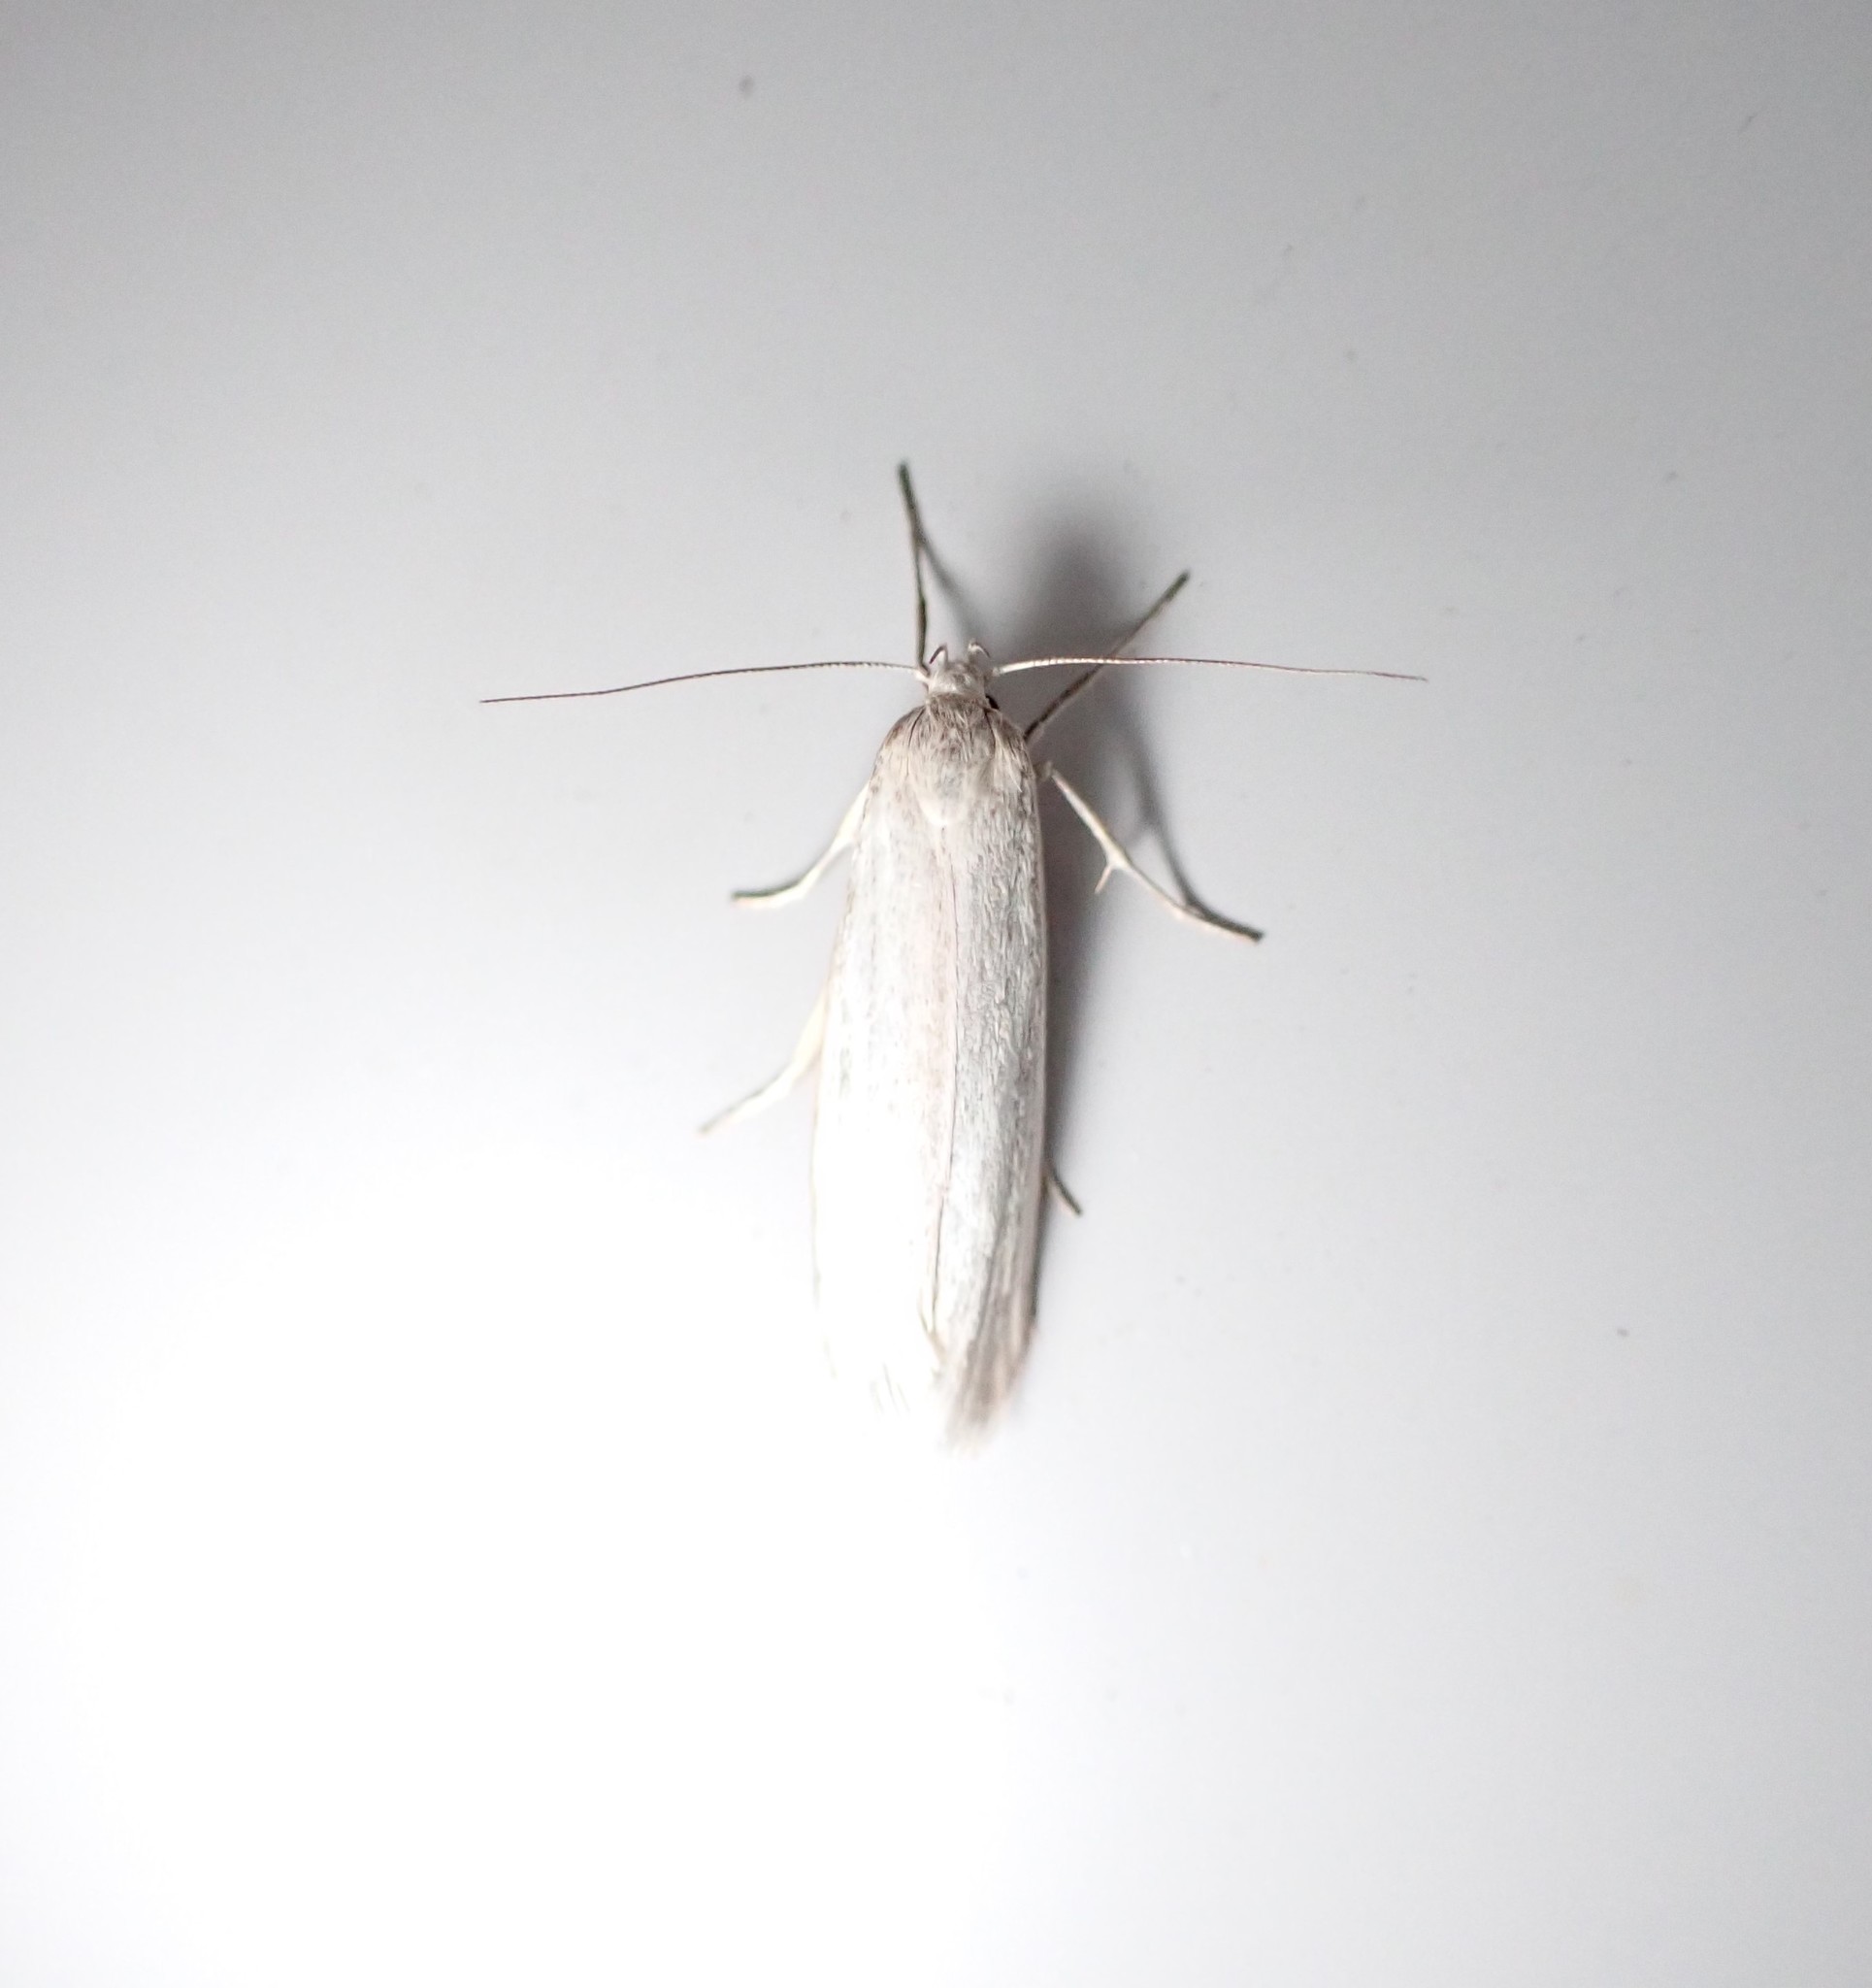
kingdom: Animalia
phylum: Arthropoda
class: Insecta
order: Lepidoptera
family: Oecophoridae
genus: Philobota
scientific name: Philobota chionoptera
